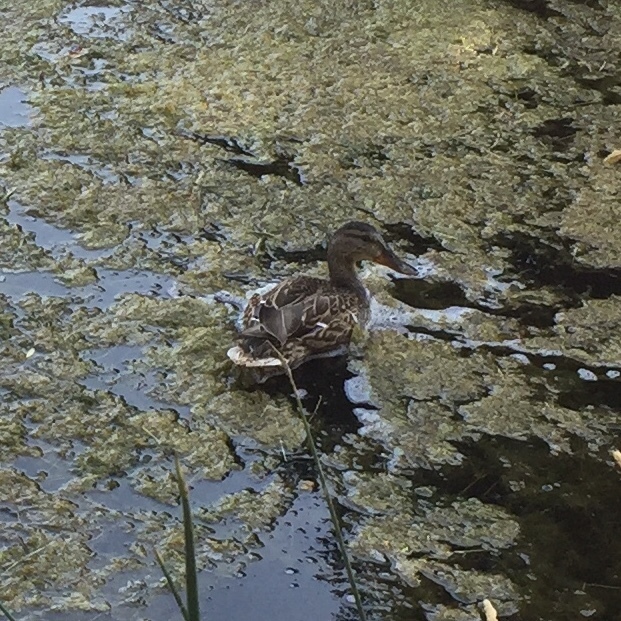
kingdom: Animalia
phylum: Chordata
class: Aves
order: Anseriformes
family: Anatidae
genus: Anas
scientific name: Anas platyrhynchos
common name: Mallard
